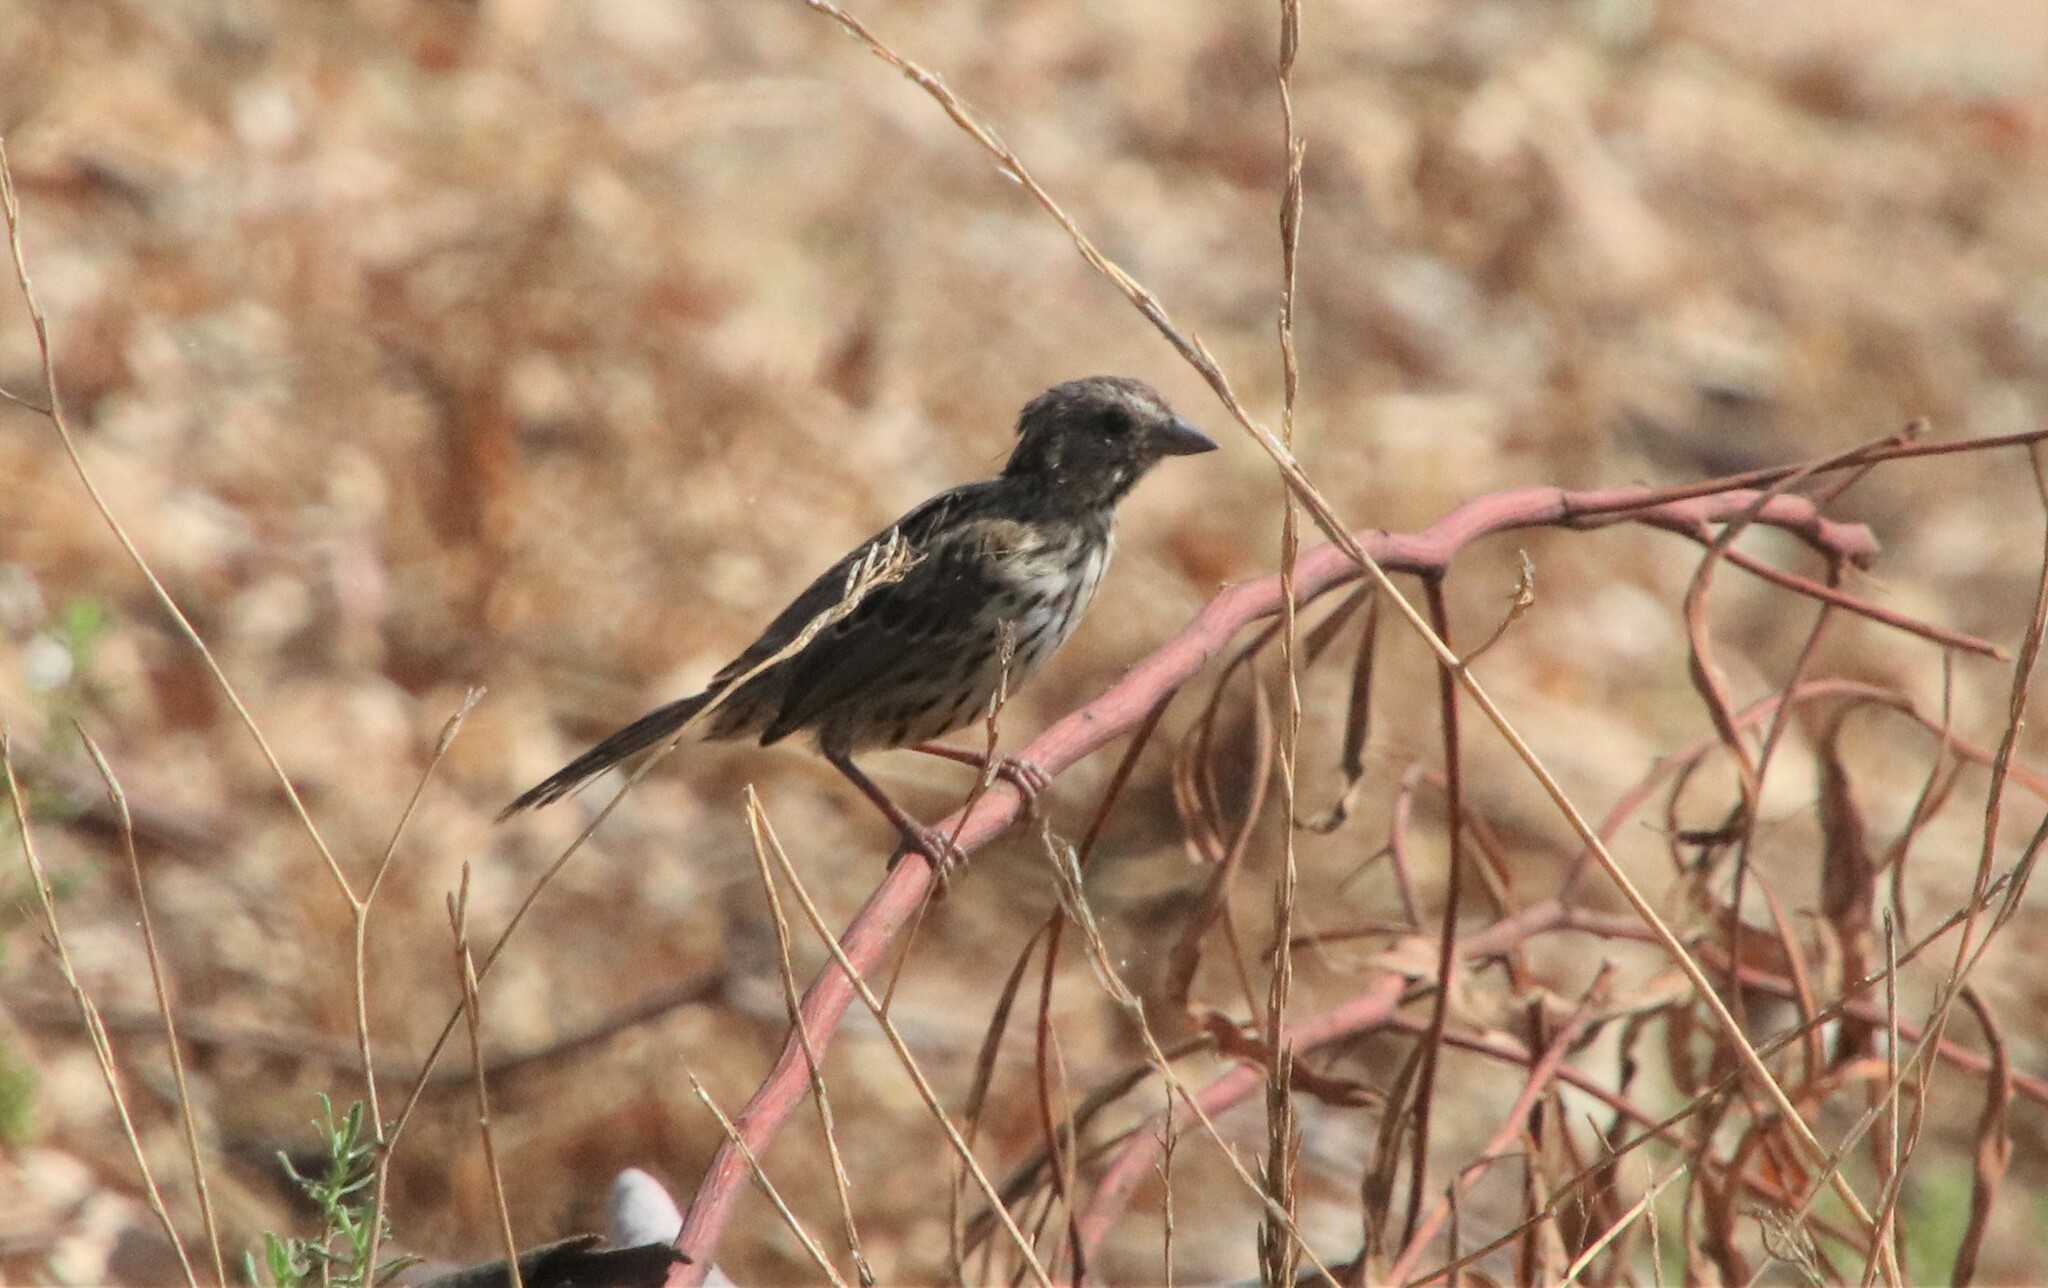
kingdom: Animalia
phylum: Chordata
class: Aves
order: Passeriformes
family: Passerellidae
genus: Melospiza
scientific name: Melospiza melodia
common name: Song sparrow
